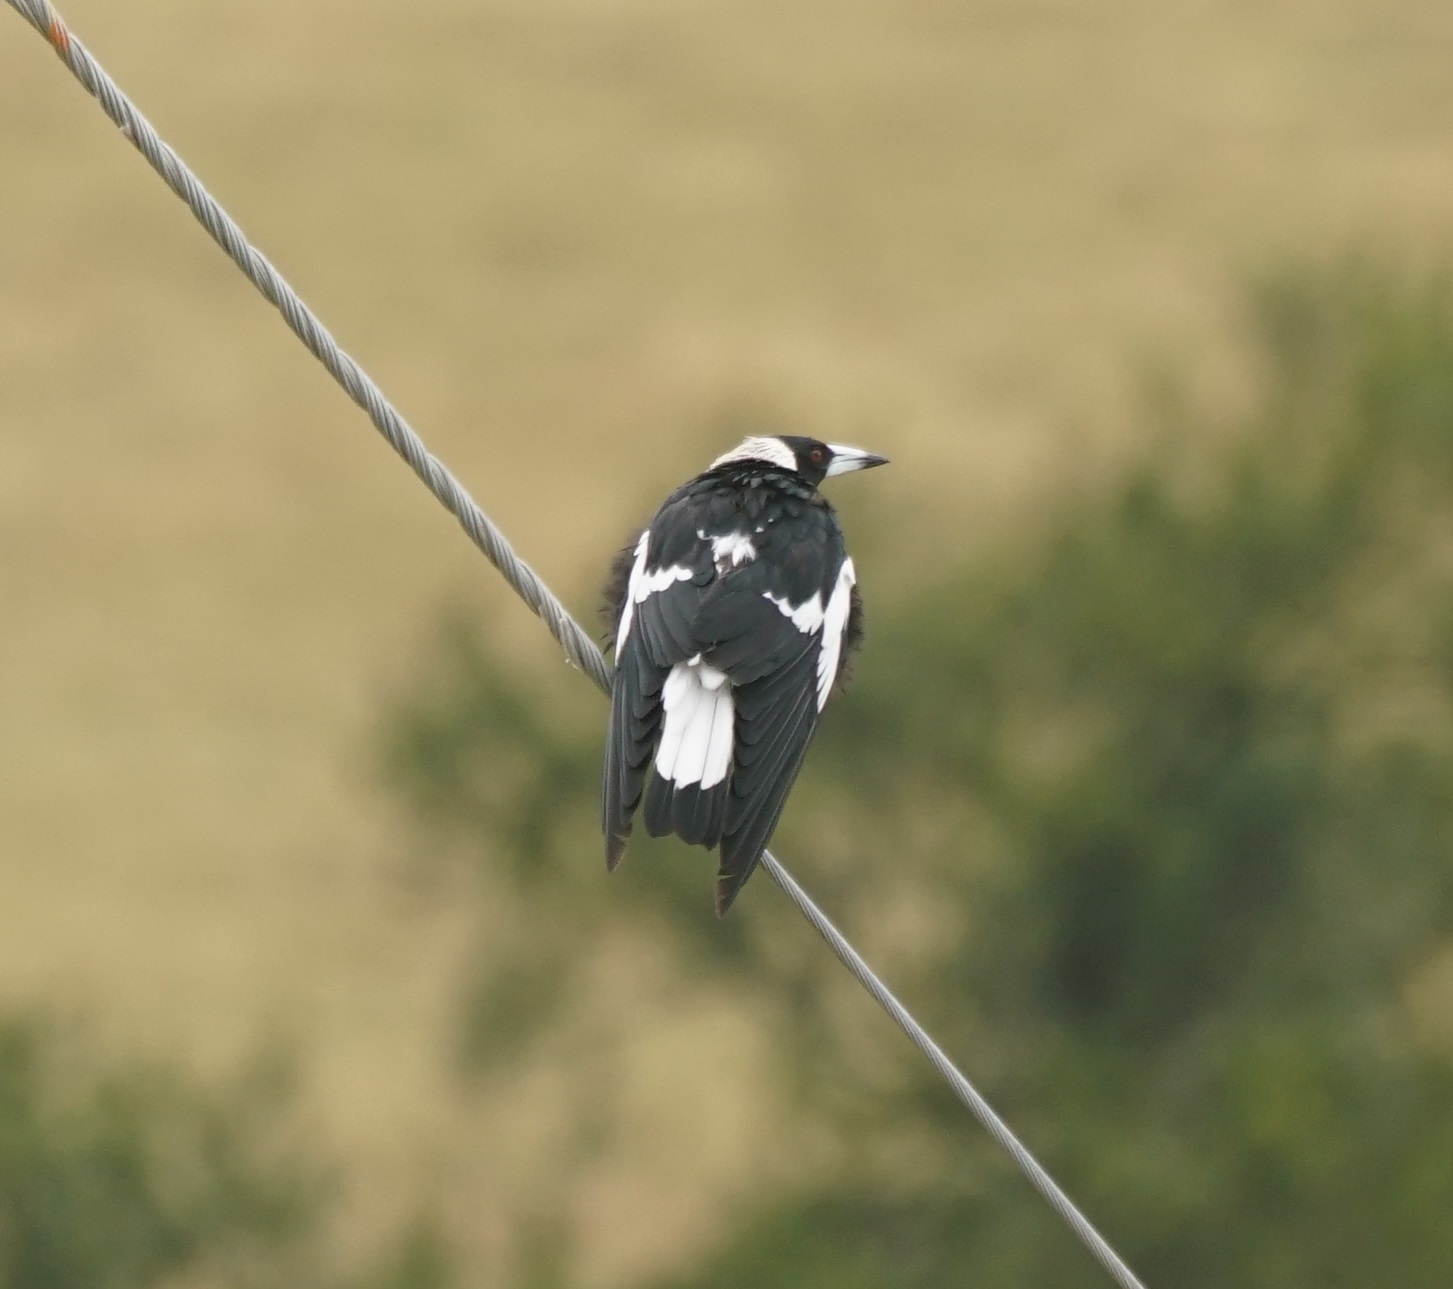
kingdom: Animalia
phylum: Chordata
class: Aves
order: Passeriformes
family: Cracticidae
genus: Gymnorhina
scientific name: Gymnorhina tibicen
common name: Australian magpie
